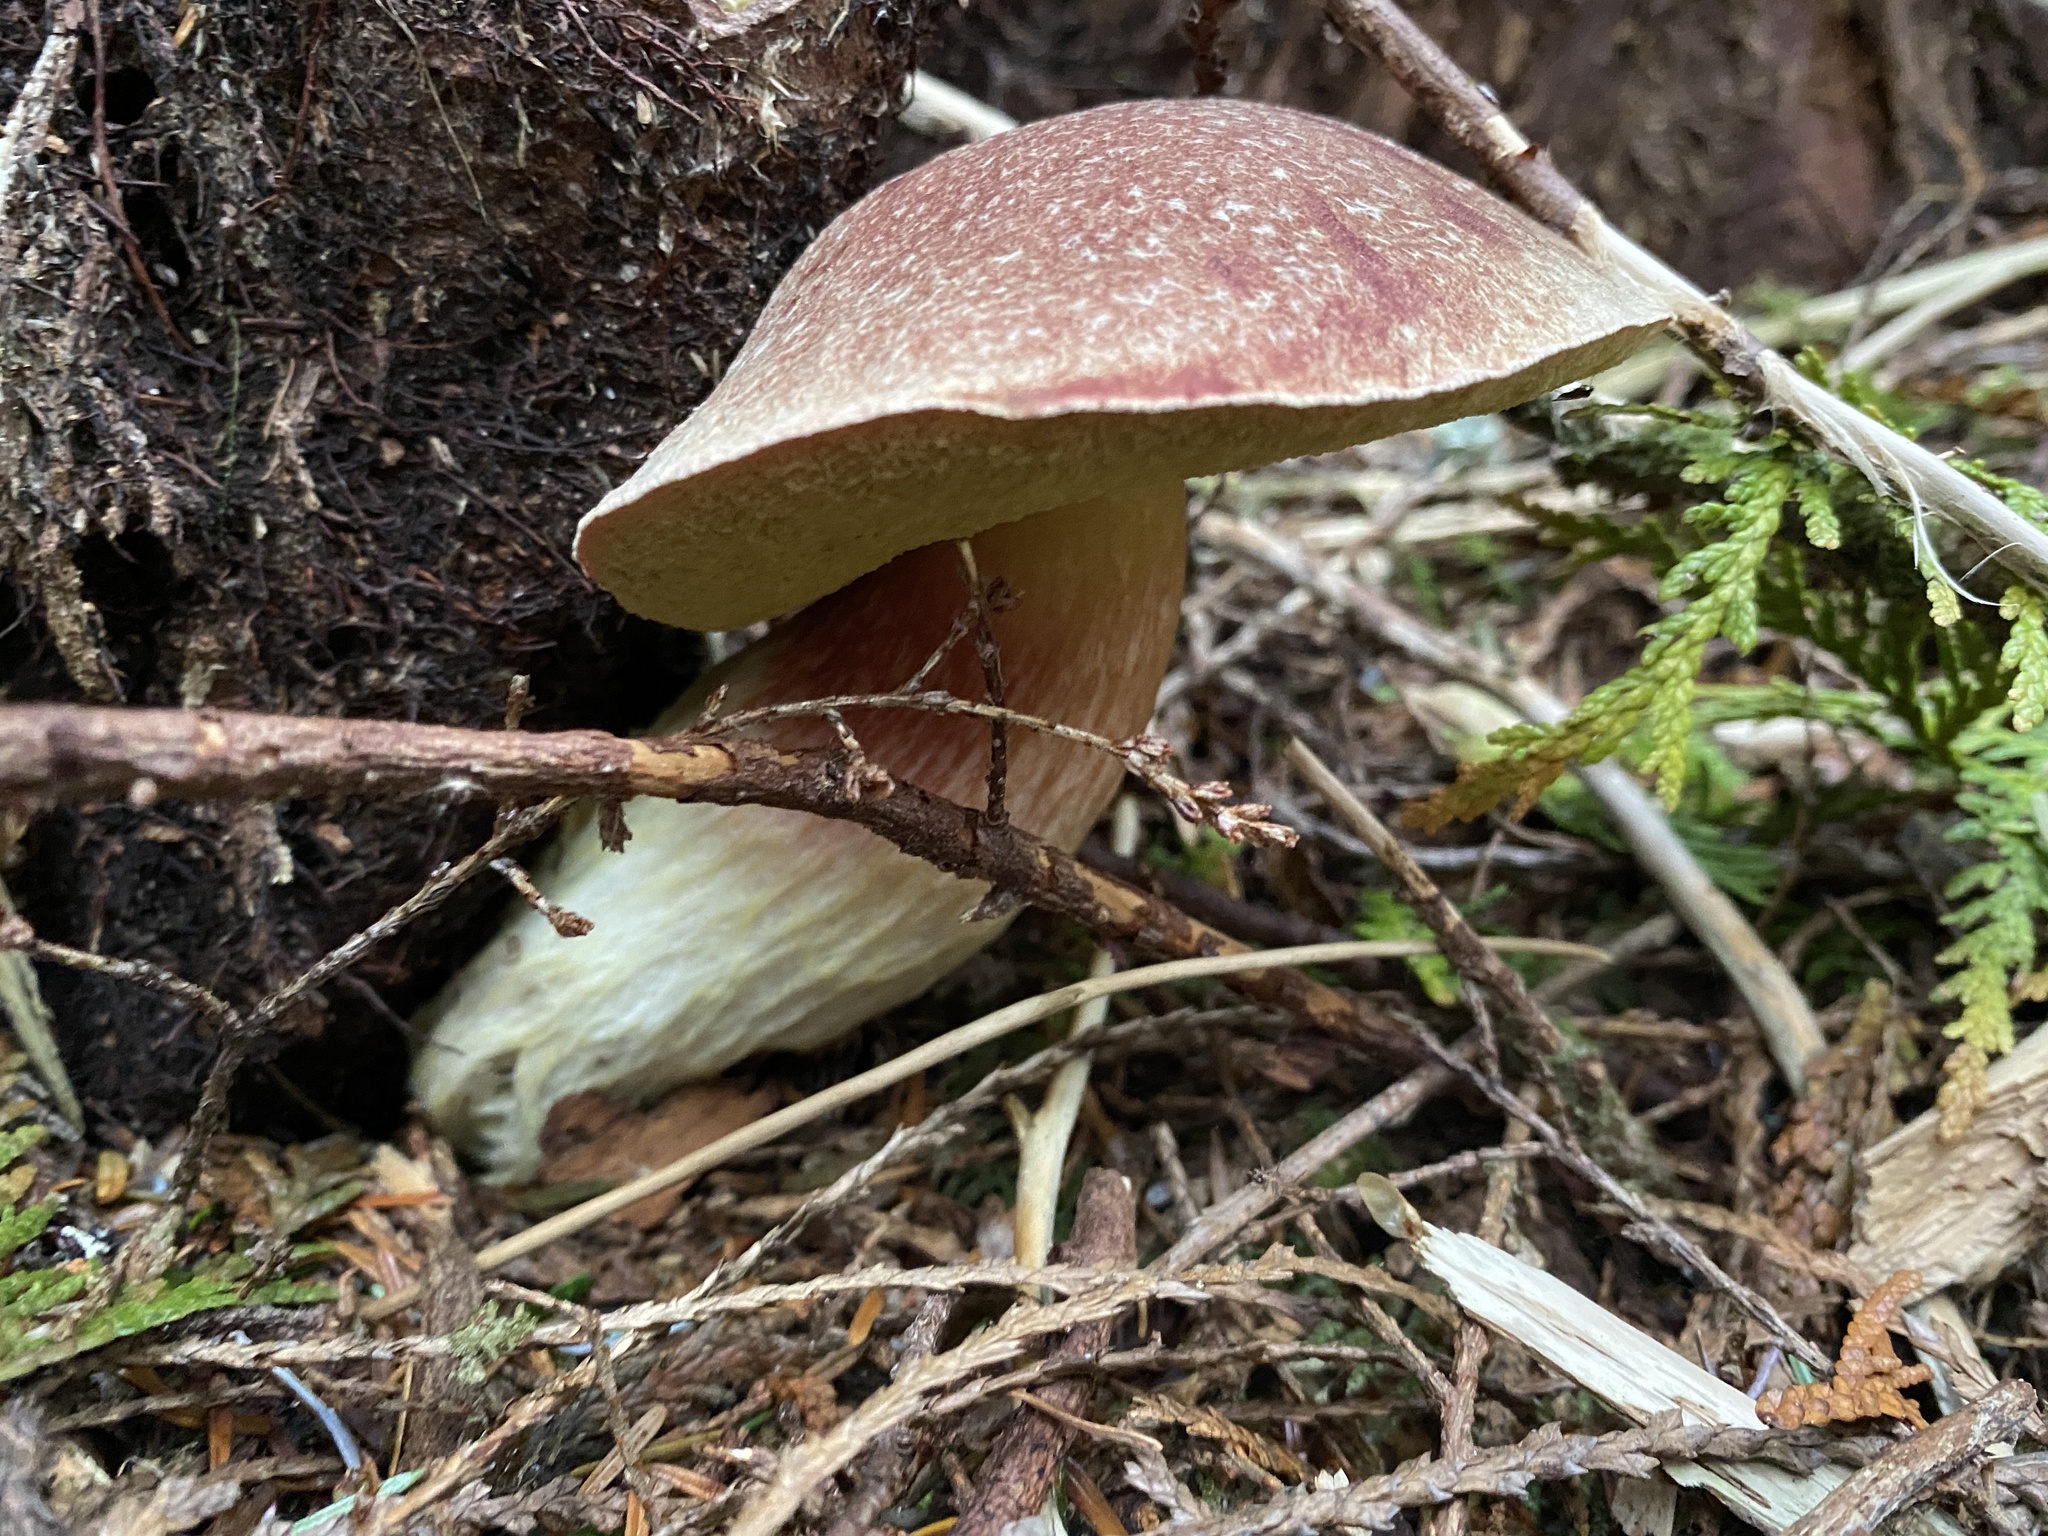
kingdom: Fungi
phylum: Basidiomycota
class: Agaricomycetes
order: Boletales
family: Boletaceae
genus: Boletus
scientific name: Boletus smithii
